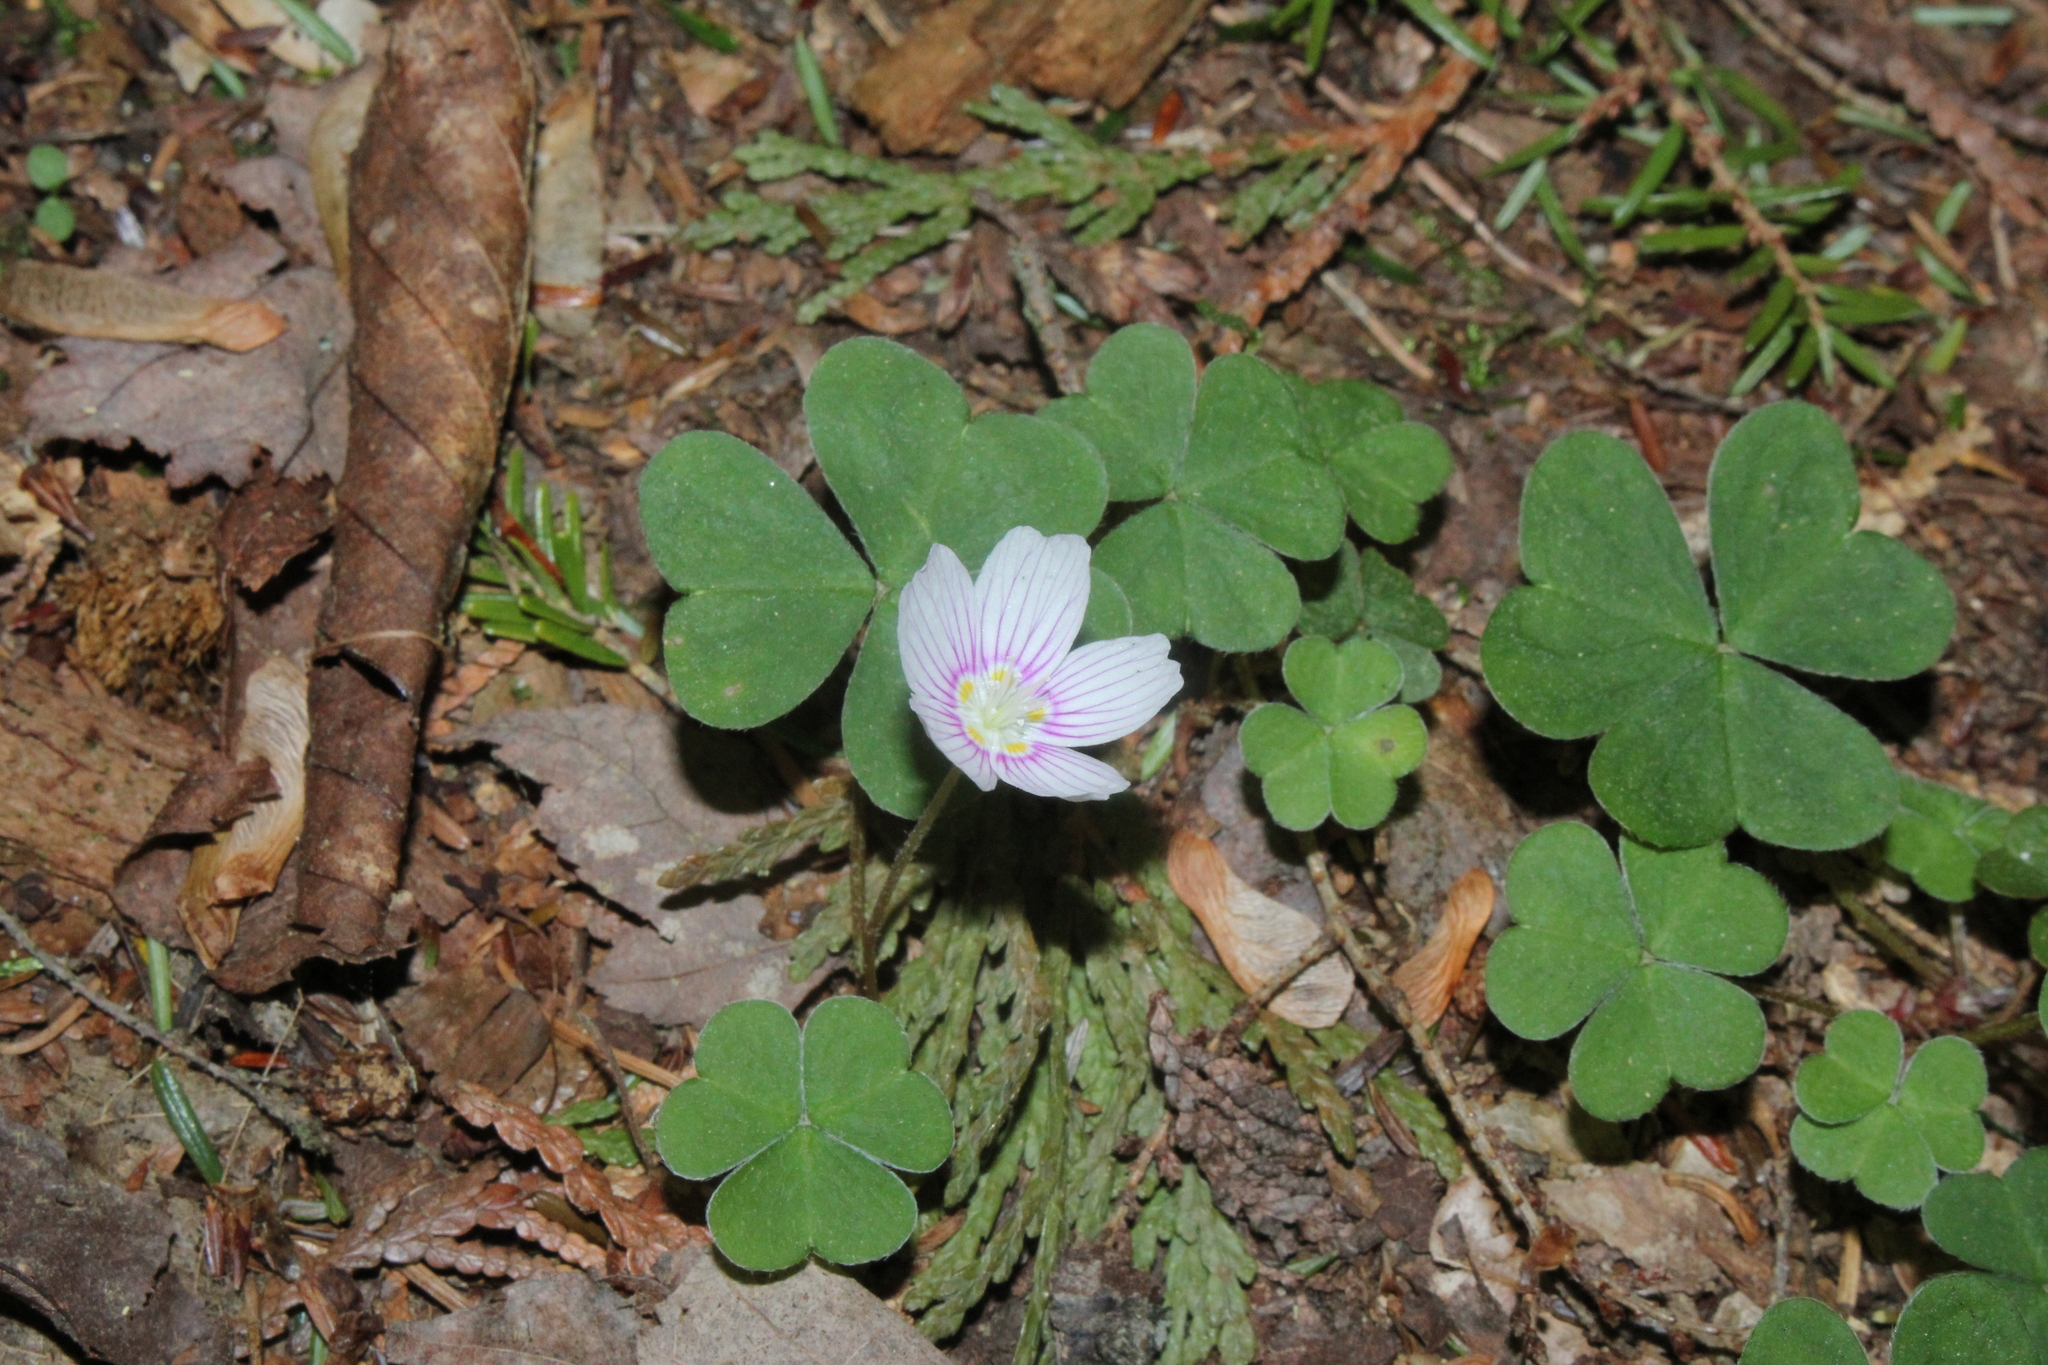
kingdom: Plantae
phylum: Tracheophyta
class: Magnoliopsida
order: Oxalidales
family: Oxalidaceae
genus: Oxalis
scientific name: Oxalis montana
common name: American wood-sorrel
